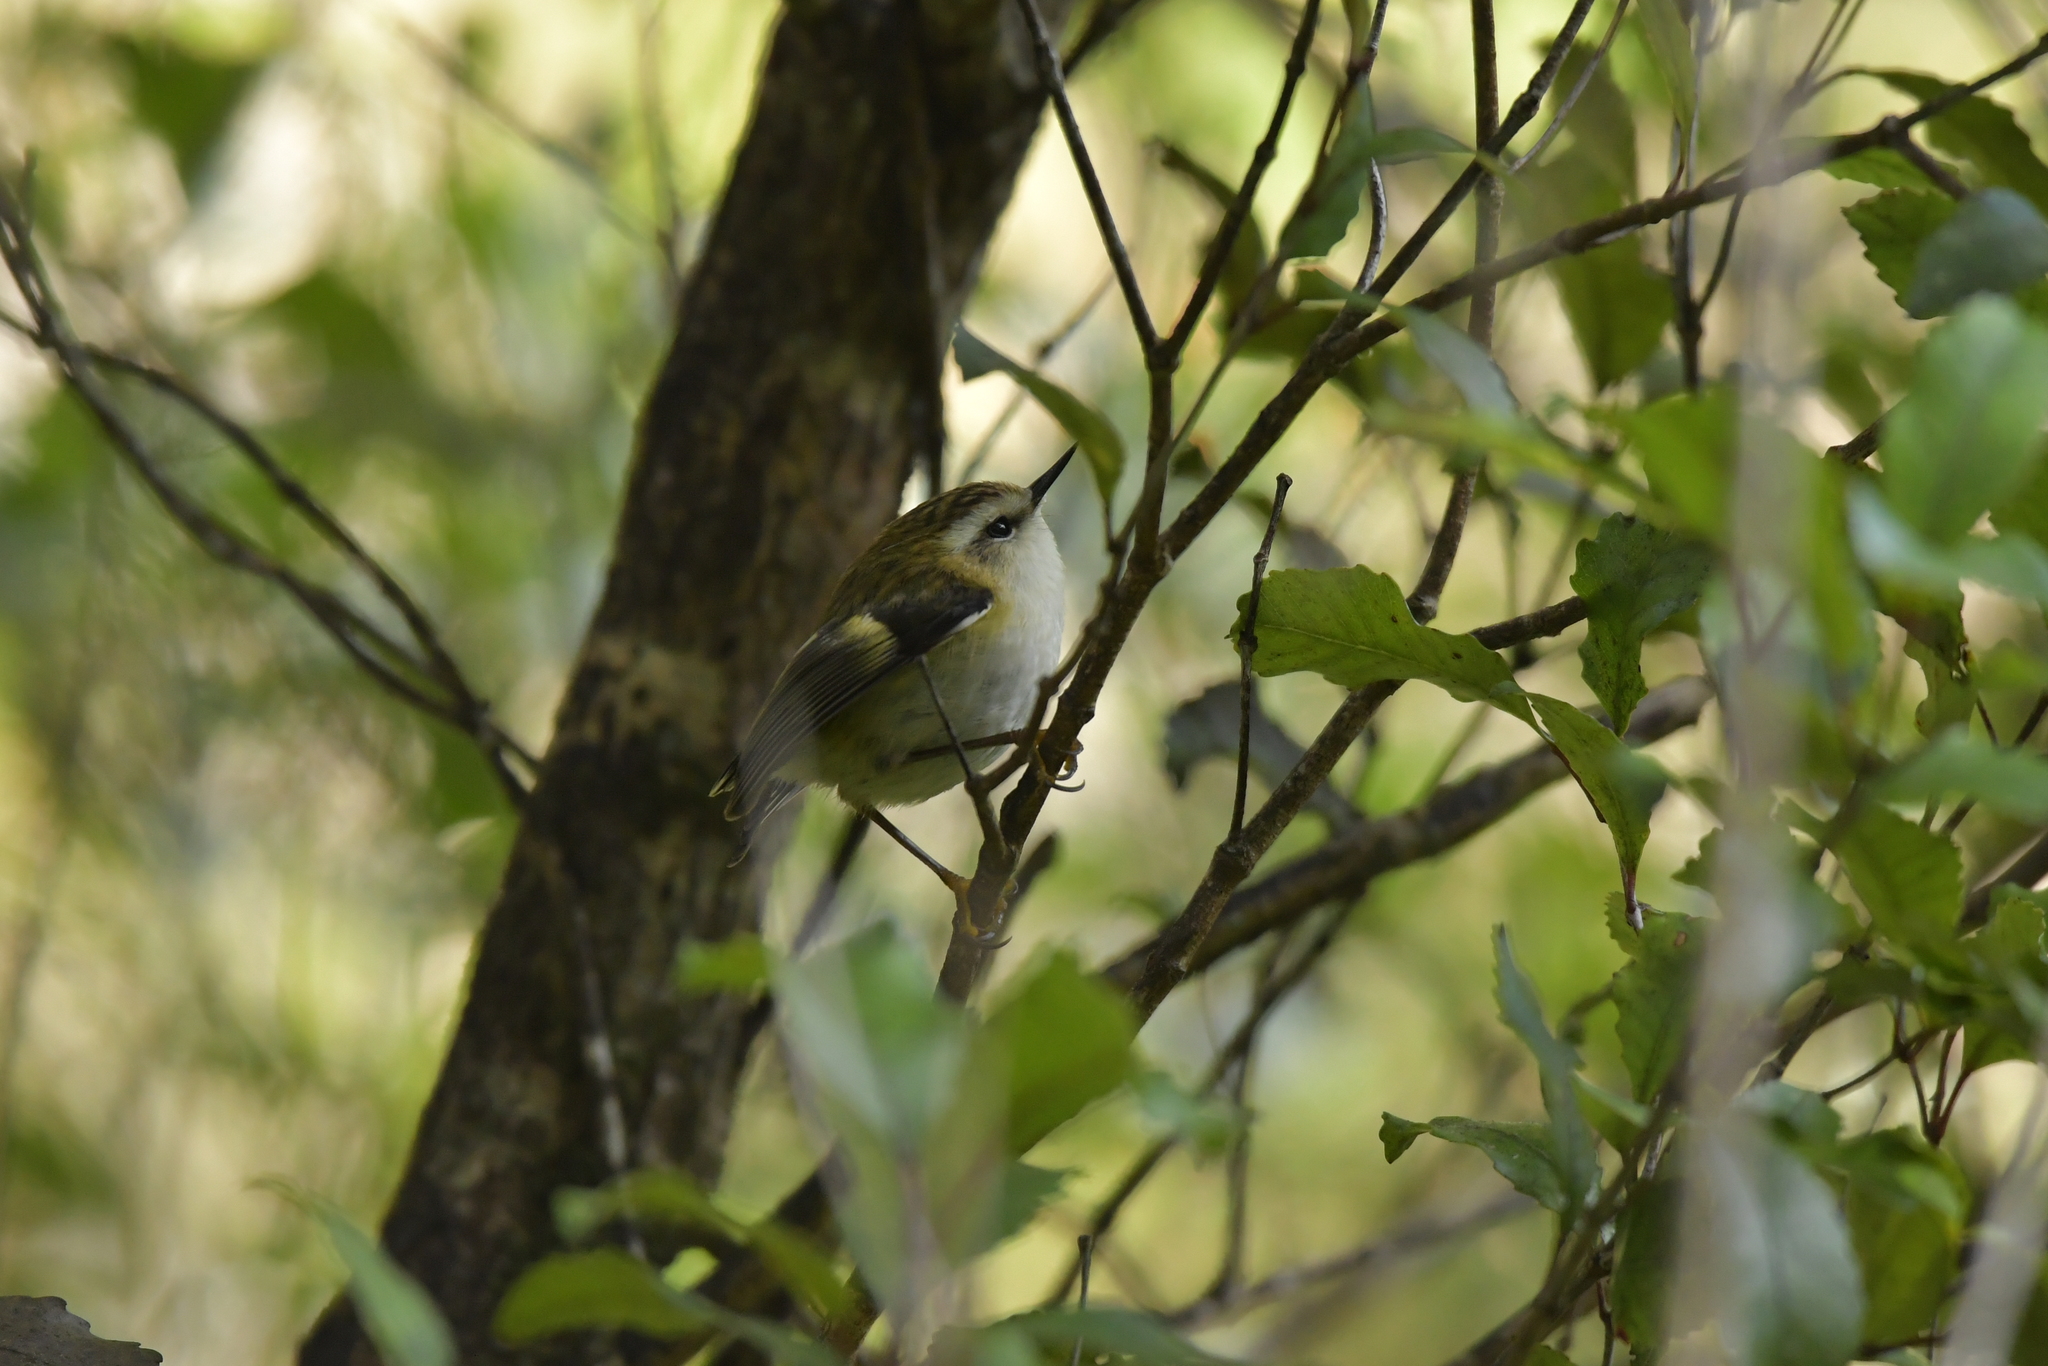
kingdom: Animalia
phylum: Chordata
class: Aves
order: Passeriformes
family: Acanthisittidae
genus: Acanthisitta
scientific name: Acanthisitta chloris
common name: Rifleman
